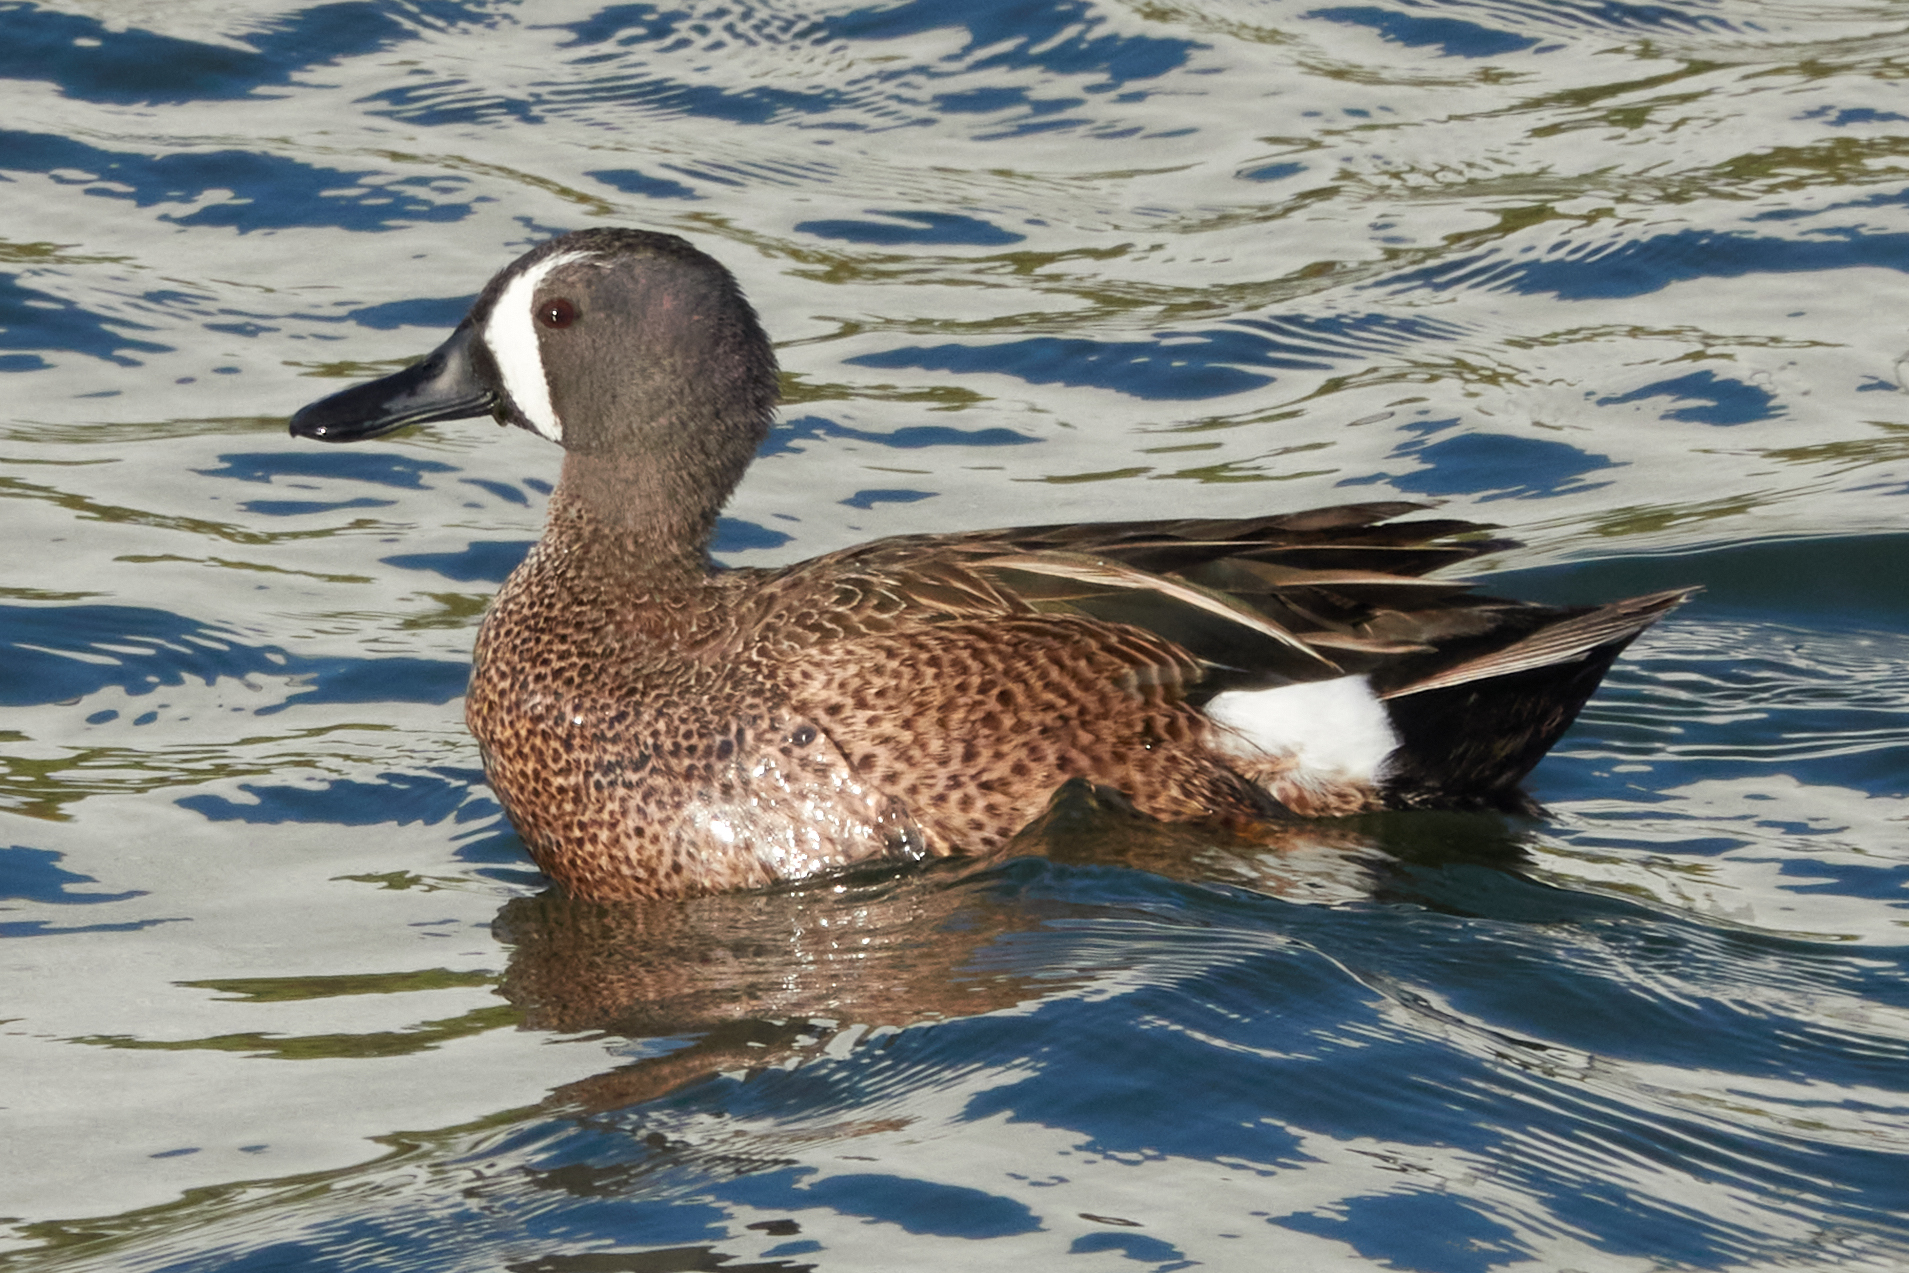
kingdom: Animalia
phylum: Chordata
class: Aves
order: Anseriformes
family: Anatidae
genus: Spatula
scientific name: Spatula discors
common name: Blue-winged teal
